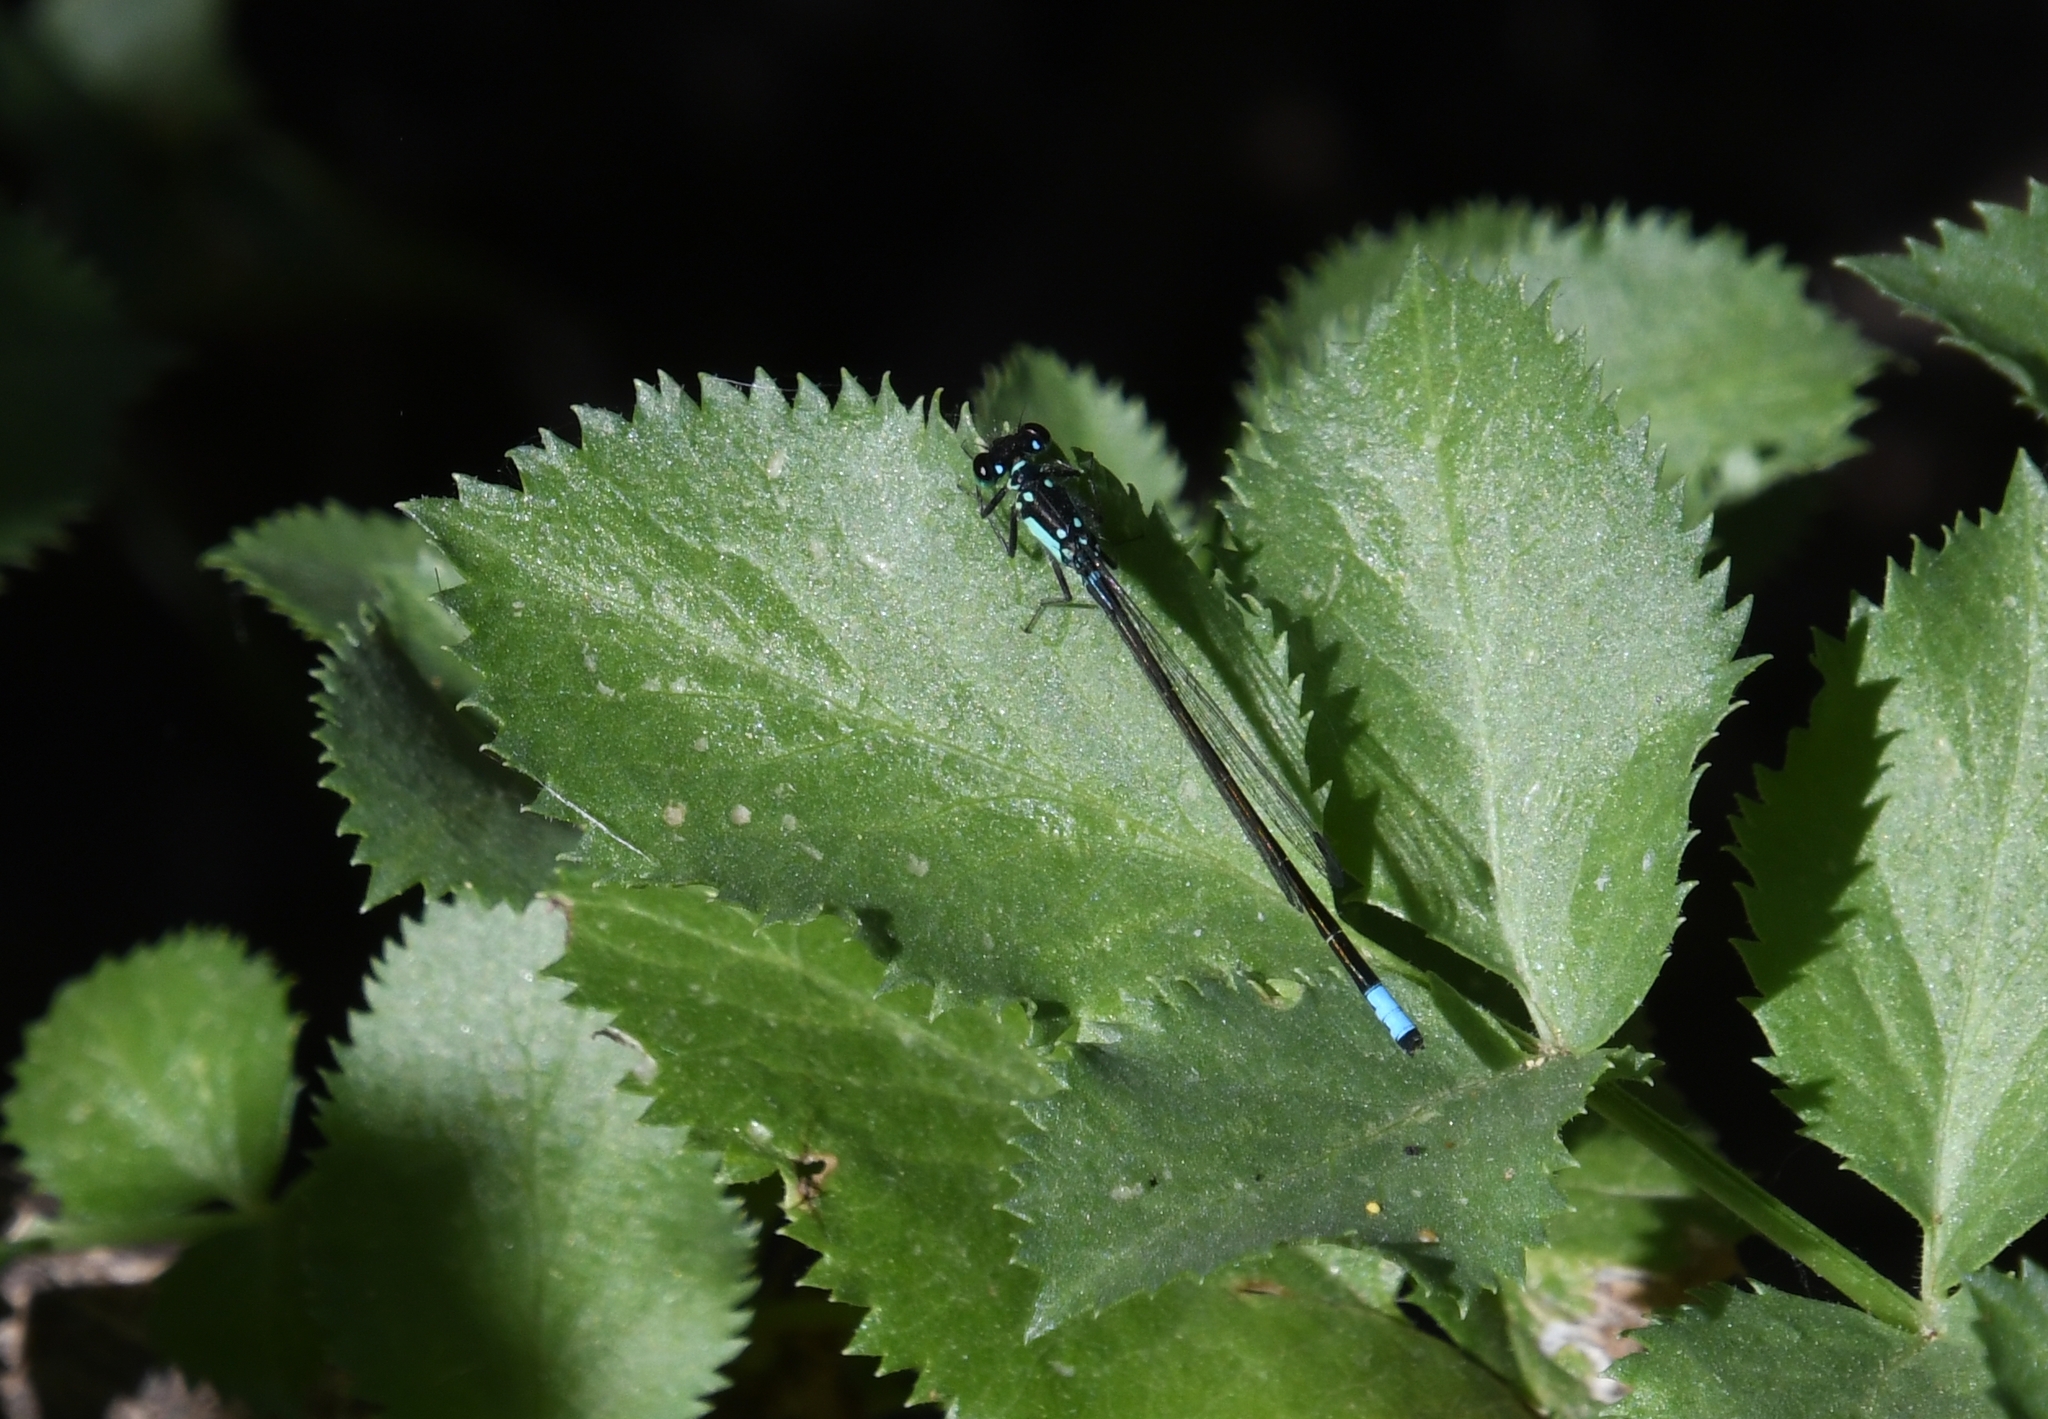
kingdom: Animalia
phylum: Arthropoda
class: Insecta
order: Odonata
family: Coenagrionidae
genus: Ischnura
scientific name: Ischnura cervula
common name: Pacific forktail
